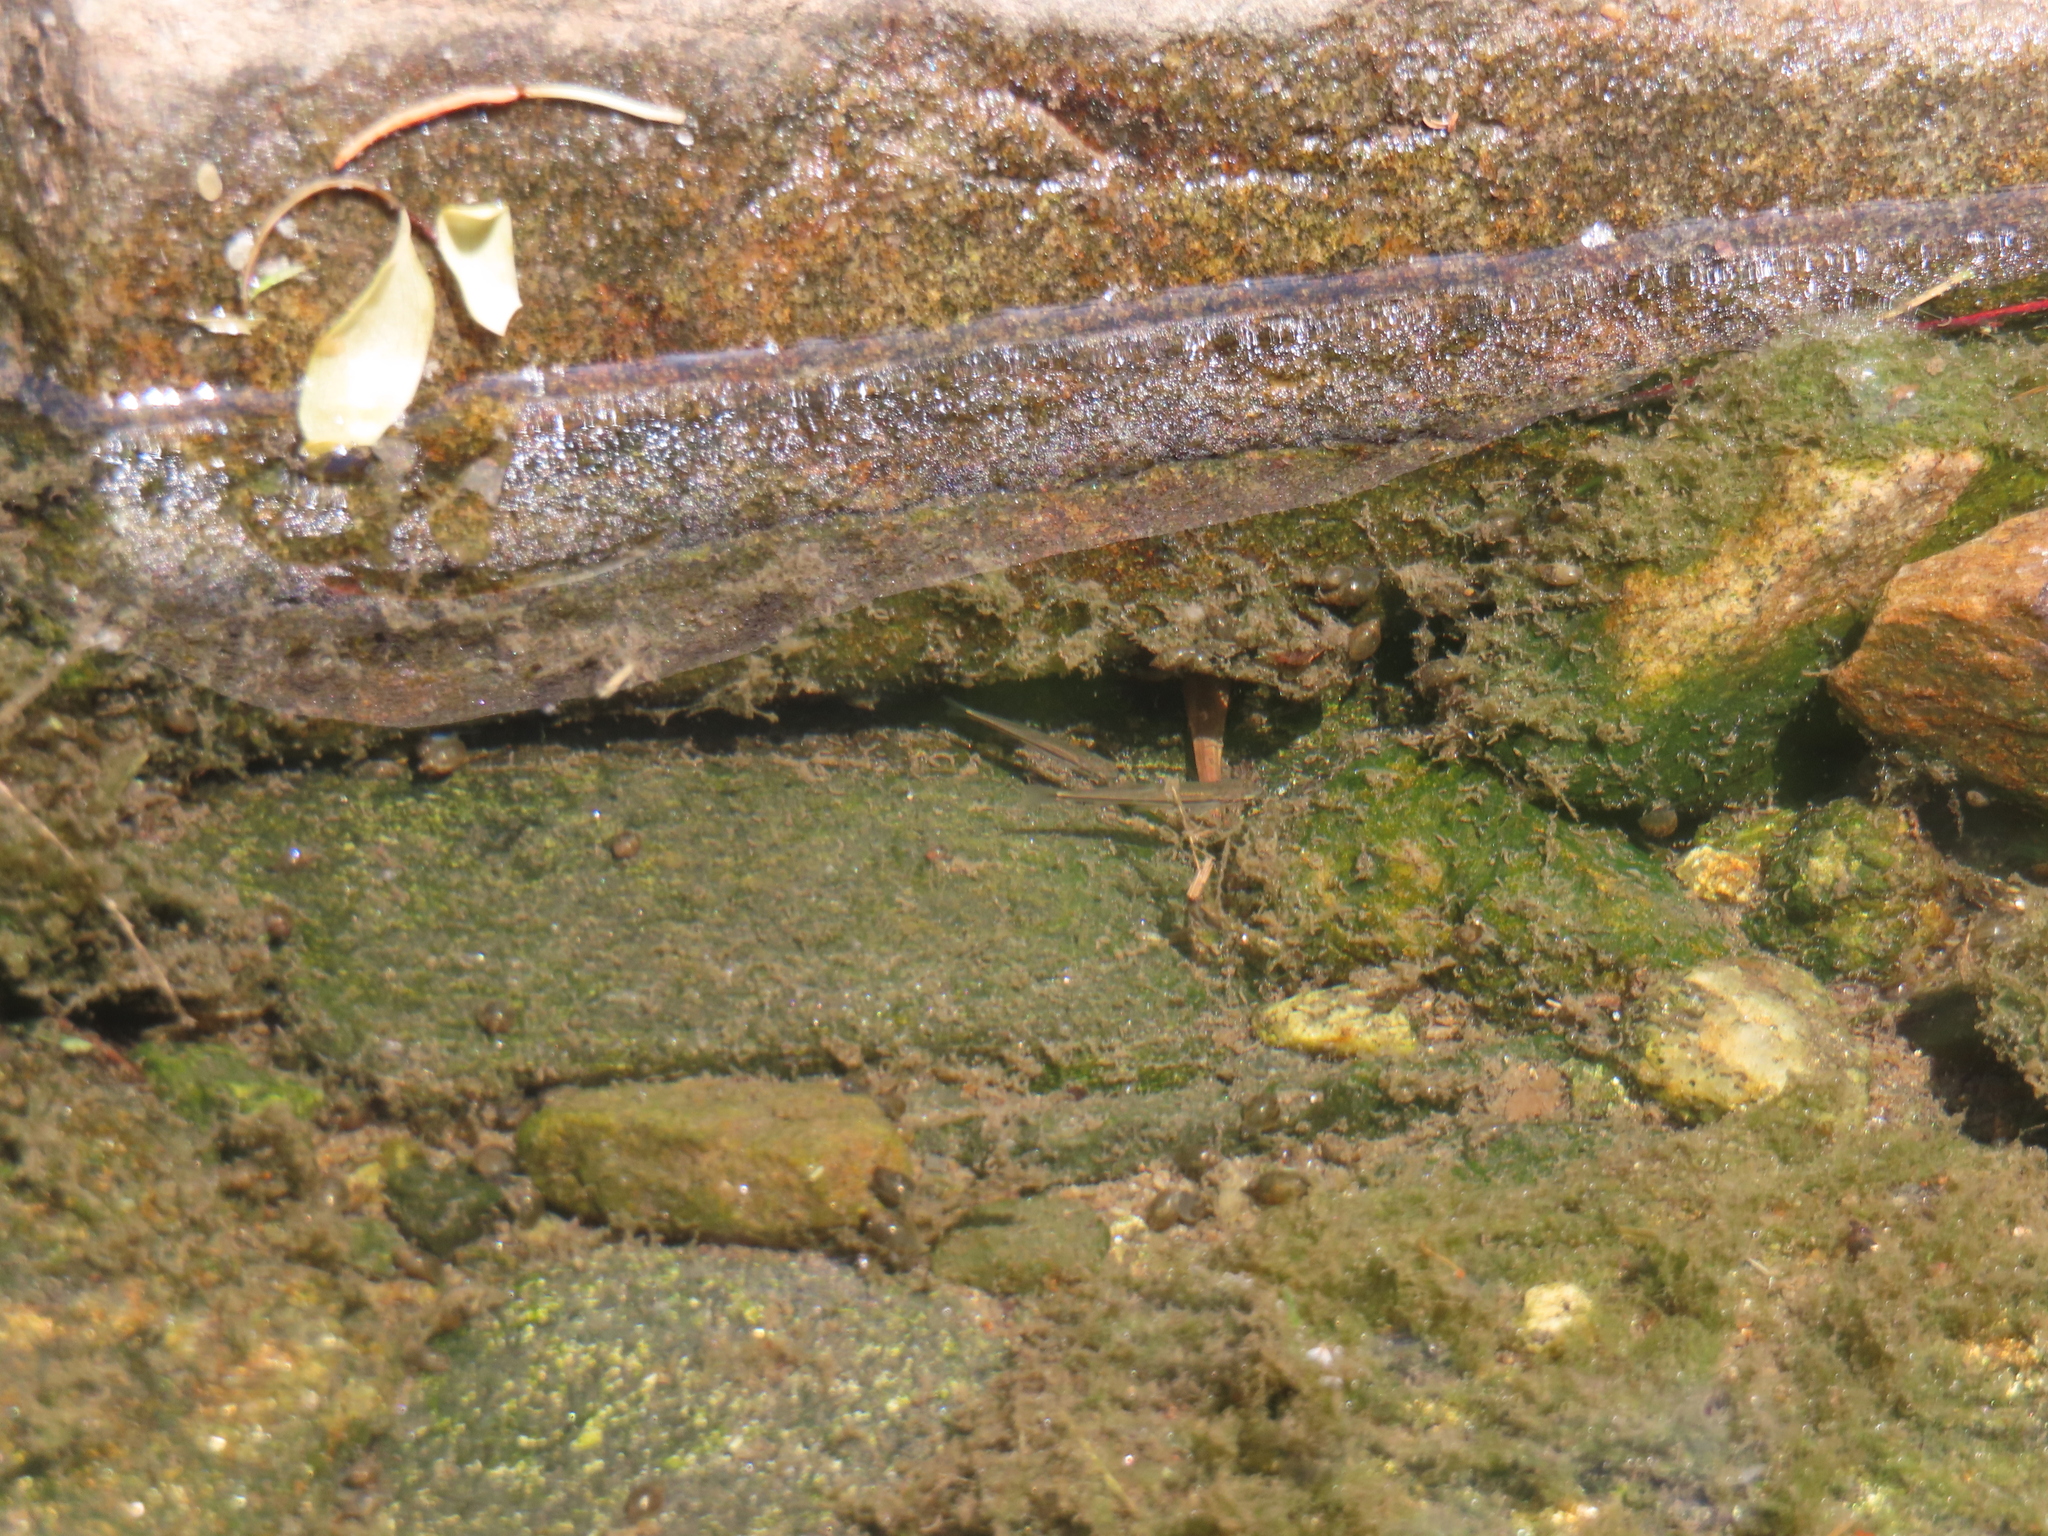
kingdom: Animalia
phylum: Chordata
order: Cypriniformes
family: Cyprinidae
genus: Rhinichthys
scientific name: Rhinichthys atratulus
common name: Eastern blacknose dace
